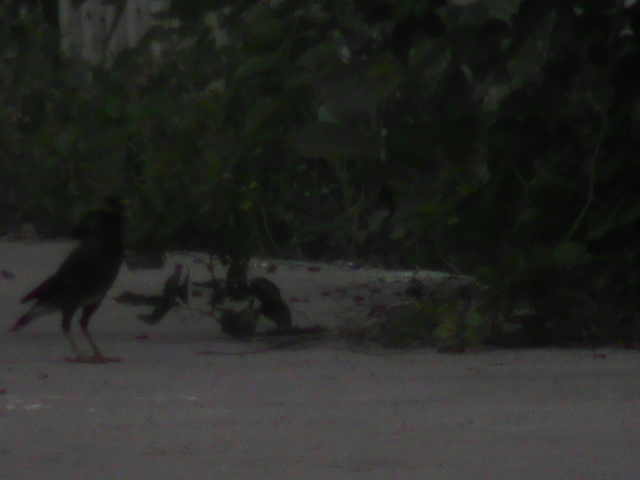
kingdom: Animalia
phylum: Chordata
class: Aves
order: Passeriformes
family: Sturnidae
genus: Acridotheres
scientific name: Acridotheres tristis
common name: Common myna
